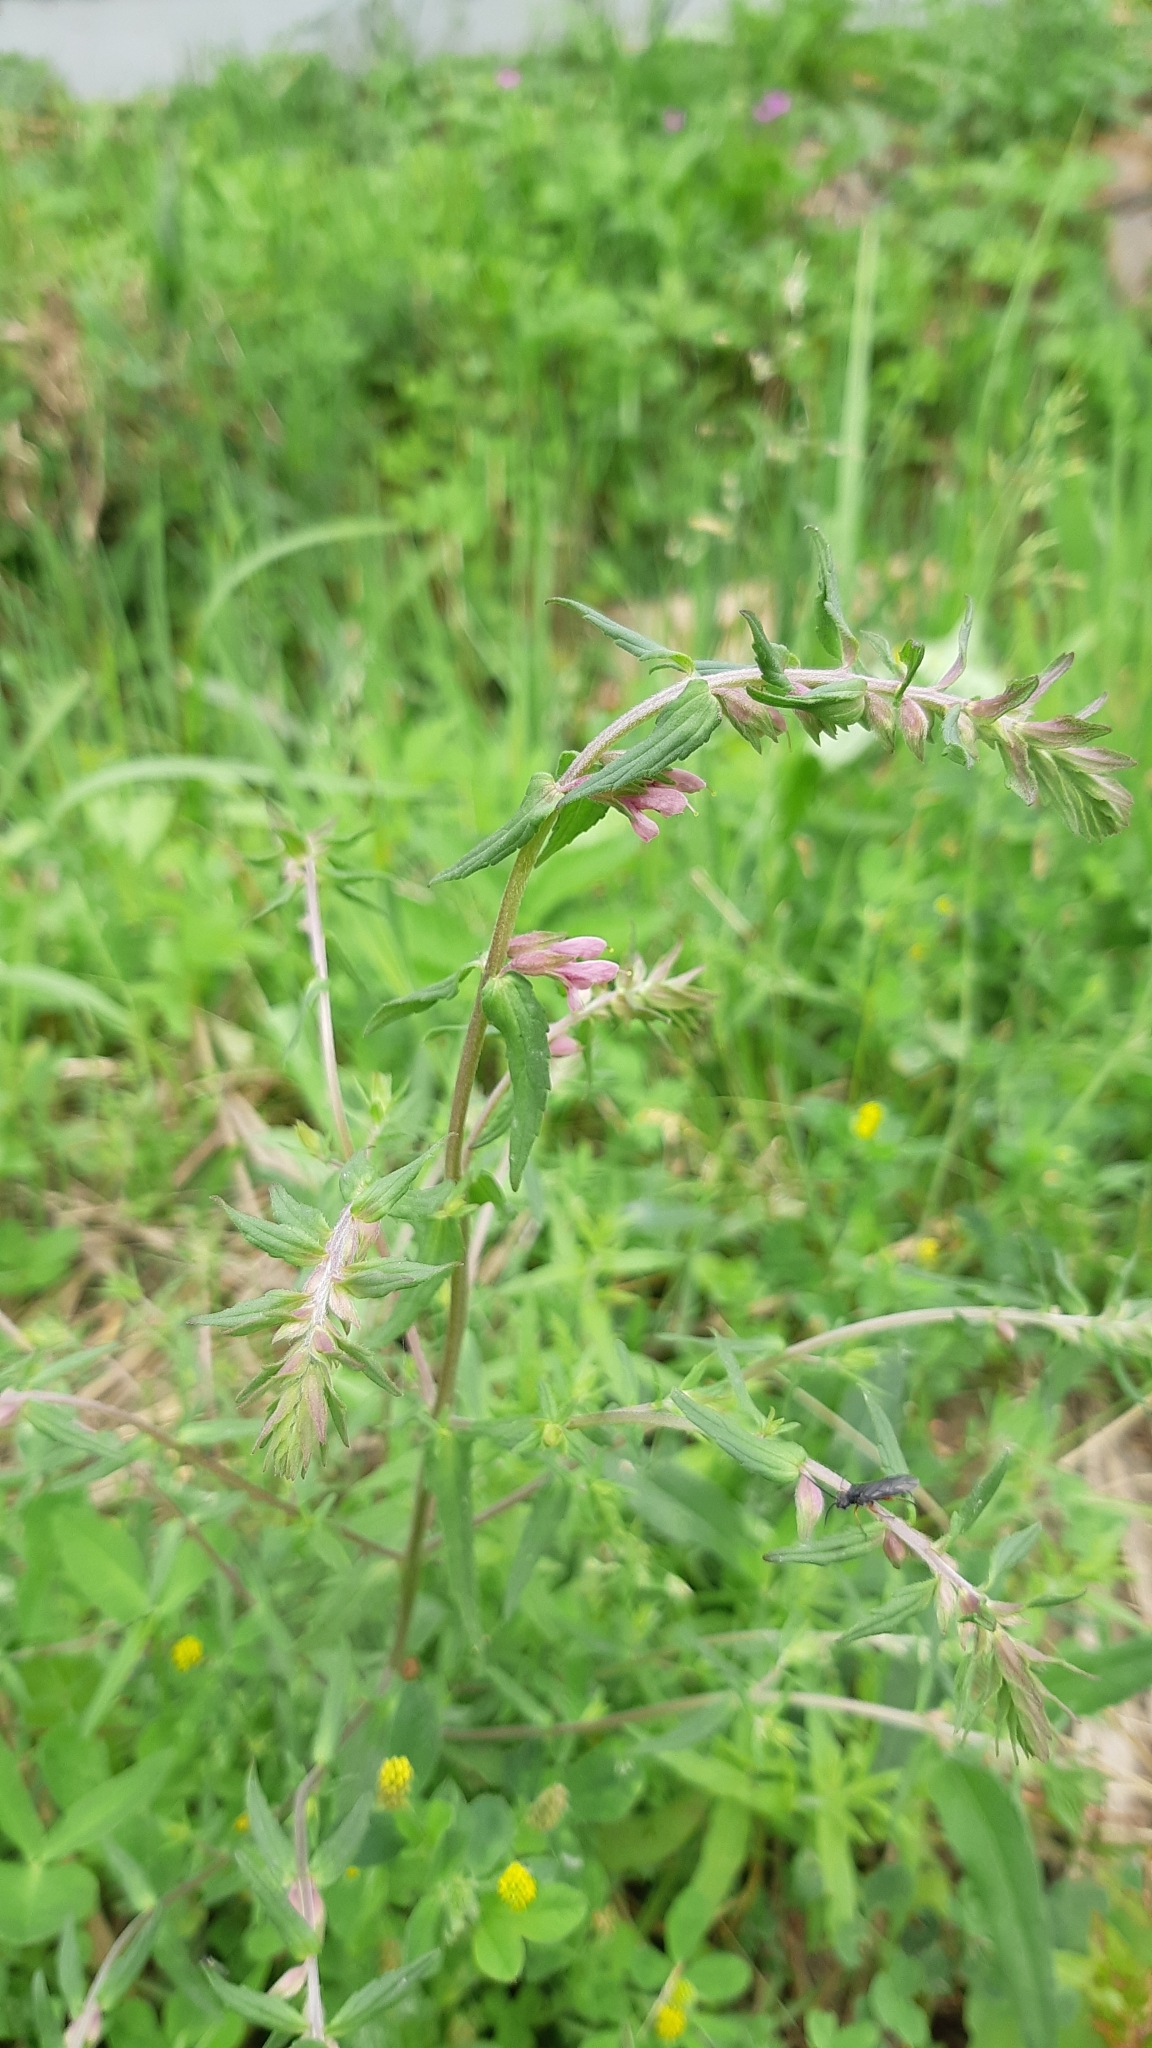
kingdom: Plantae
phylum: Tracheophyta
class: Magnoliopsida
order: Lamiales
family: Orobanchaceae
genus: Odontites
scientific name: Odontites vulgaris
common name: Broomrape
